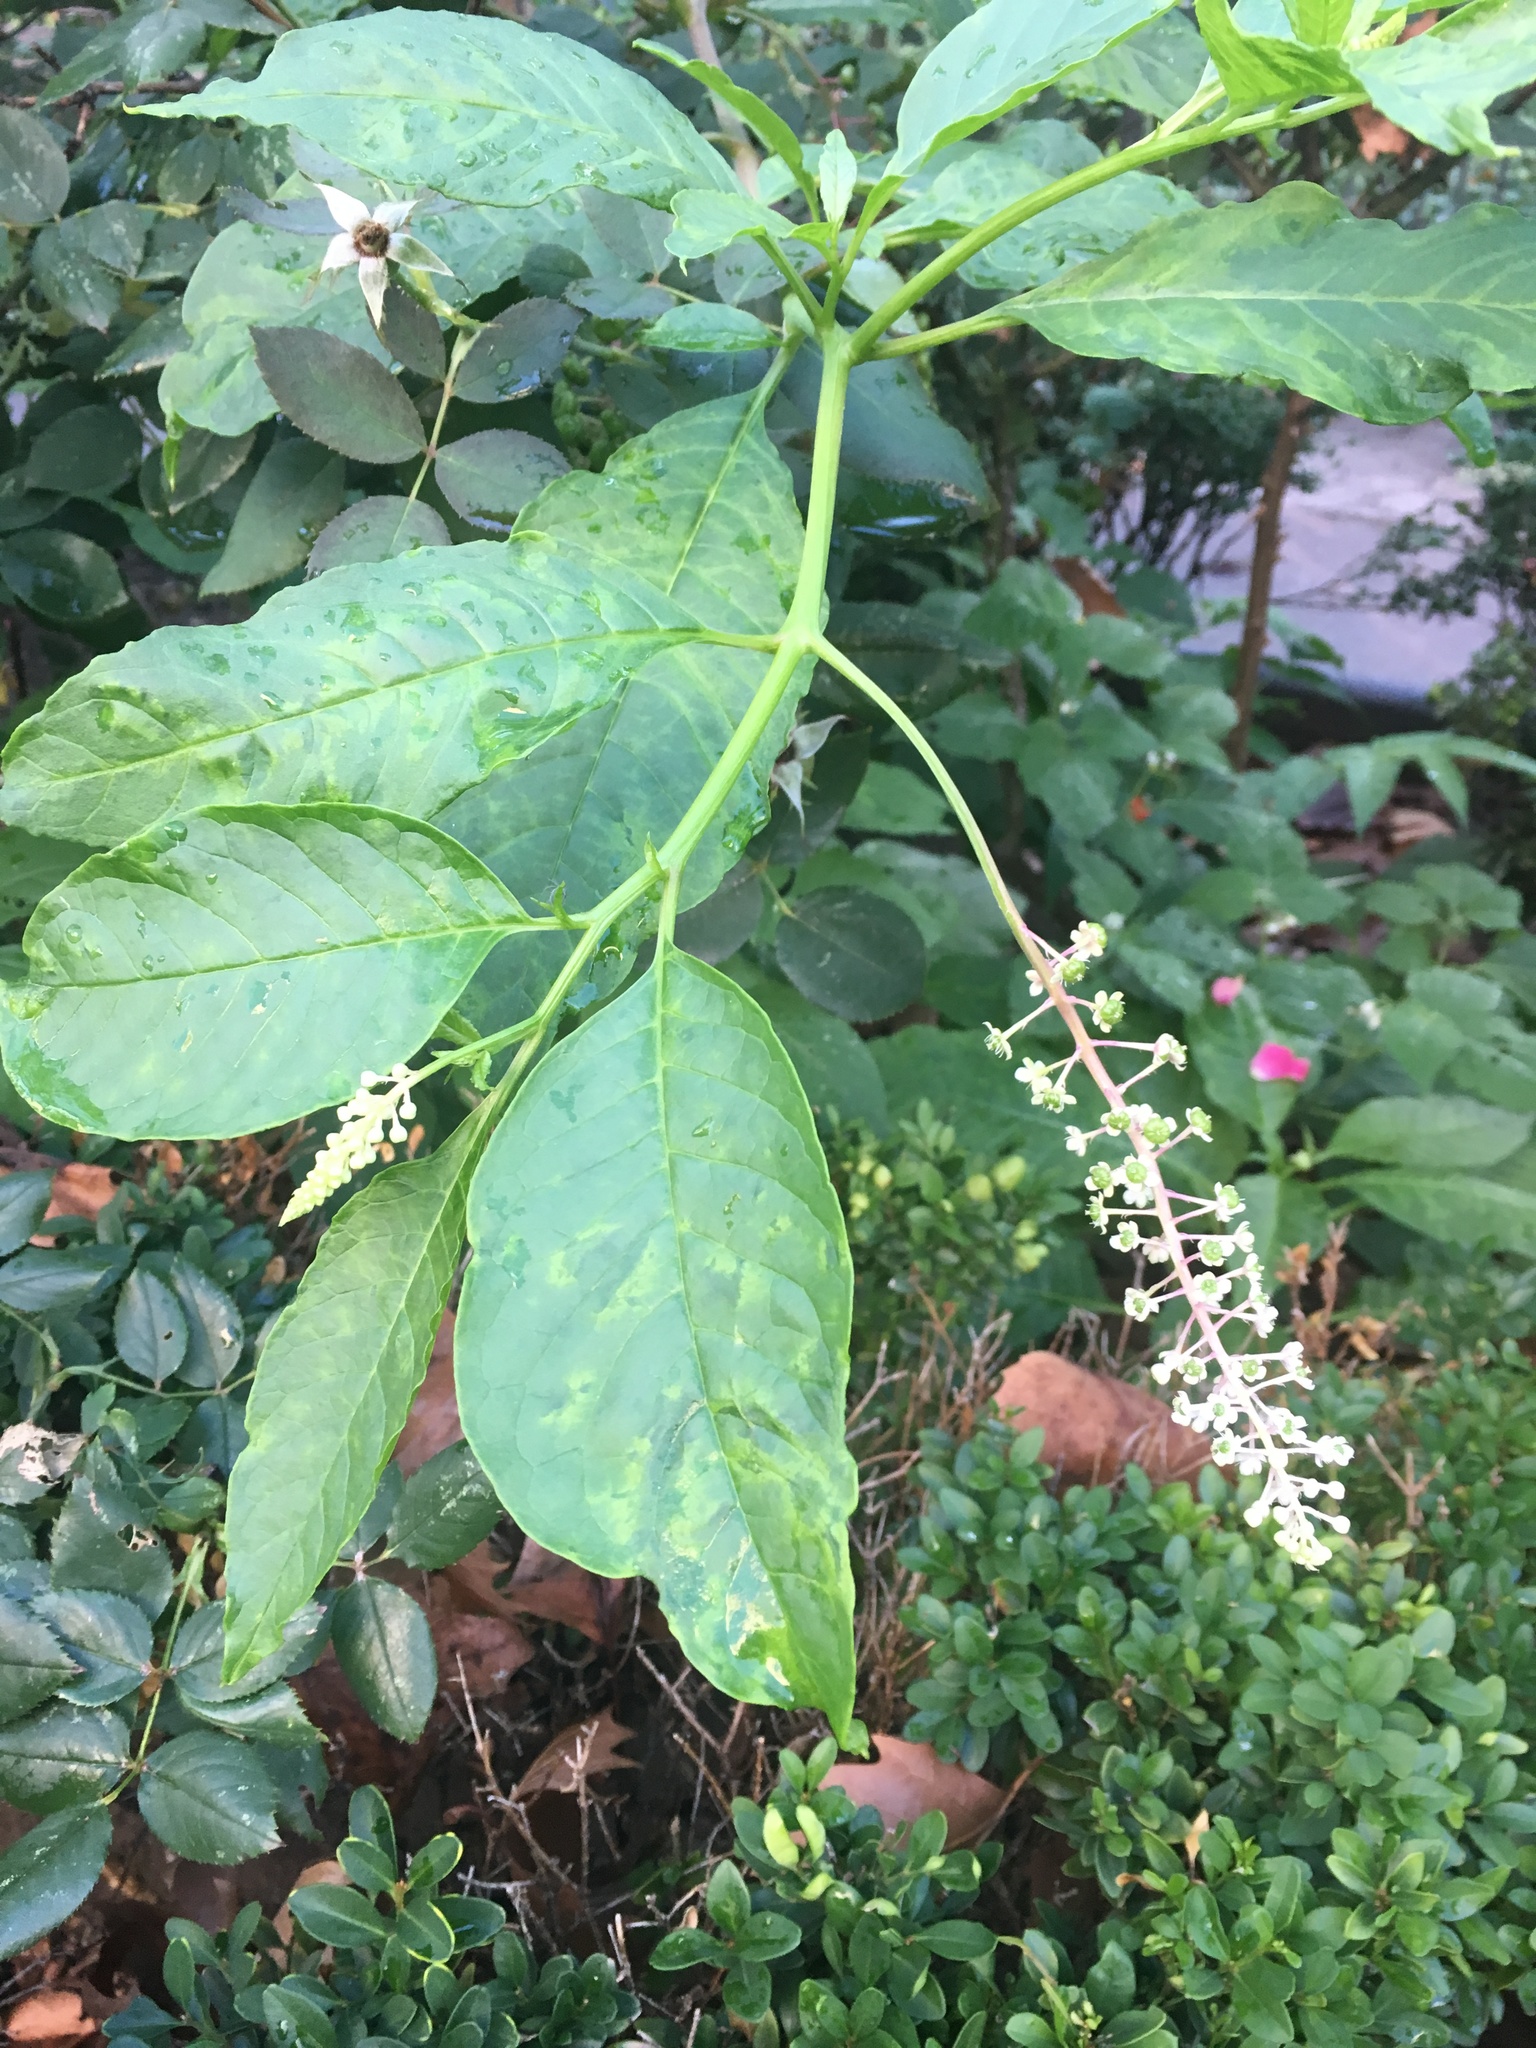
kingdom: Plantae
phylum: Tracheophyta
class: Magnoliopsida
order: Caryophyllales
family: Phytolaccaceae
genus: Phytolacca
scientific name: Phytolacca americana
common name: American pokeweed
